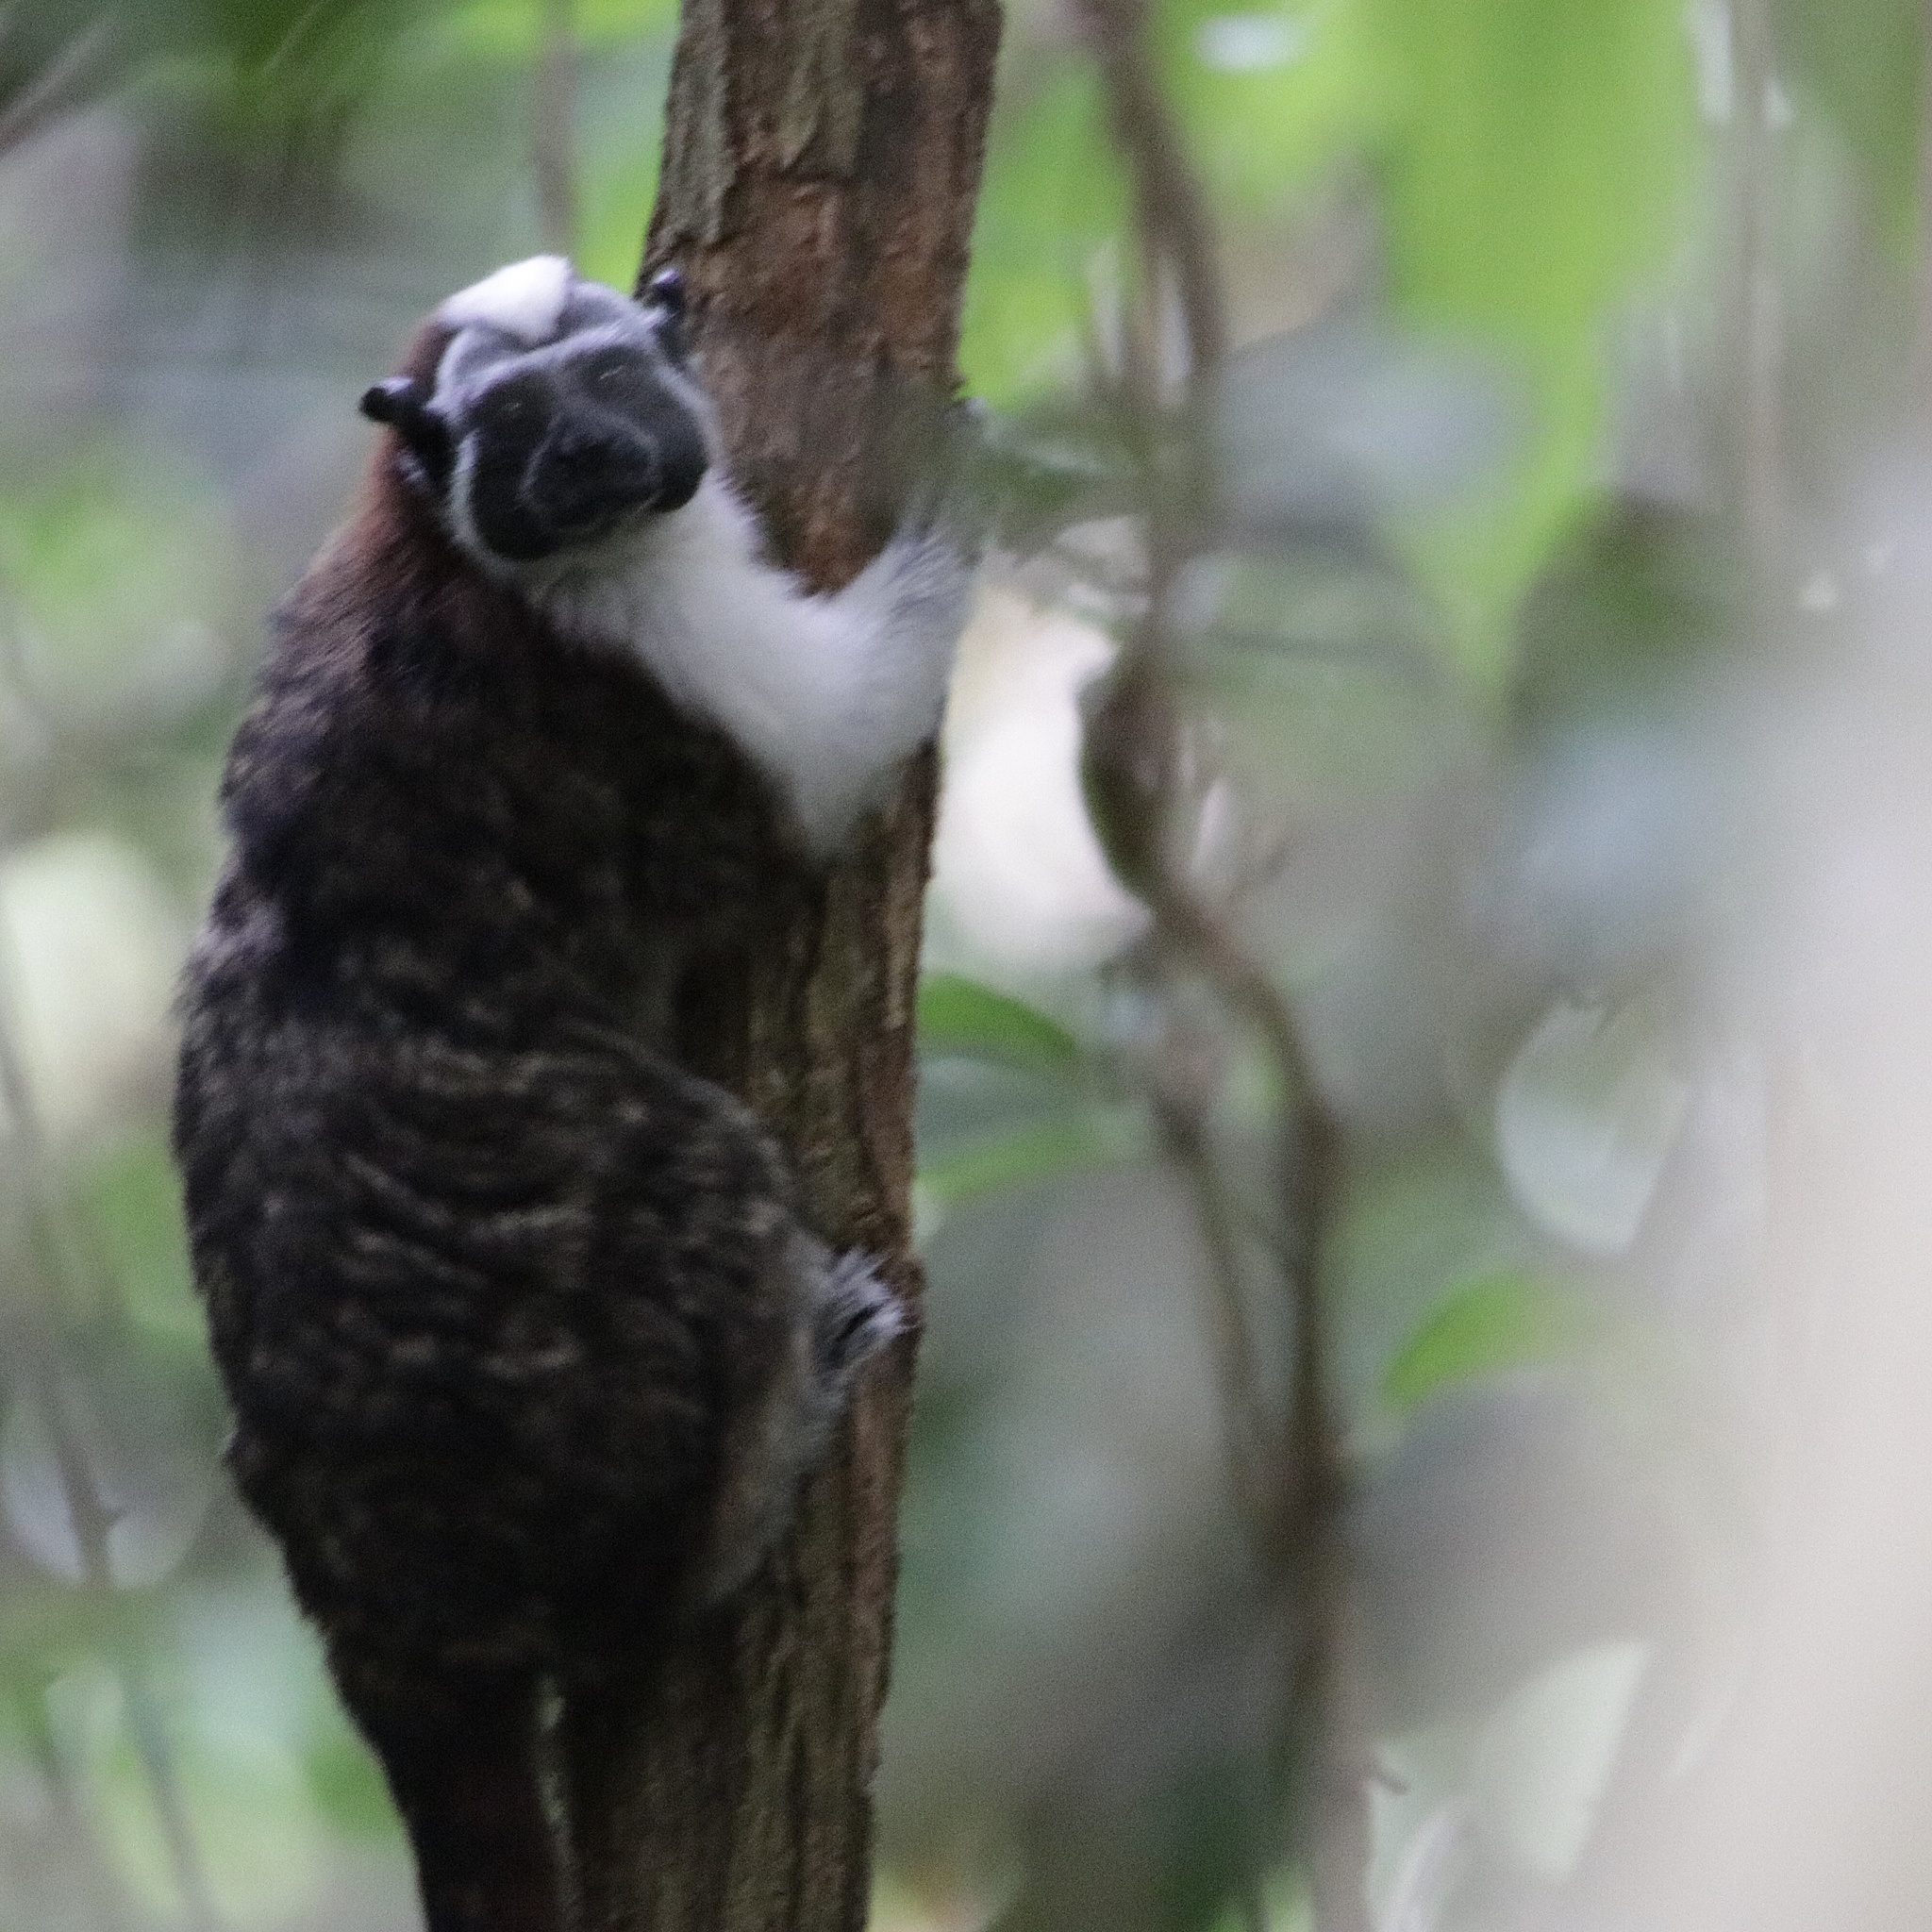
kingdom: Animalia
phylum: Chordata
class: Mammalia
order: Primates
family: Callitrichidae
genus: Saguinus
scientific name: Saguinus geoffroyi
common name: Geoffroy s tamarin
